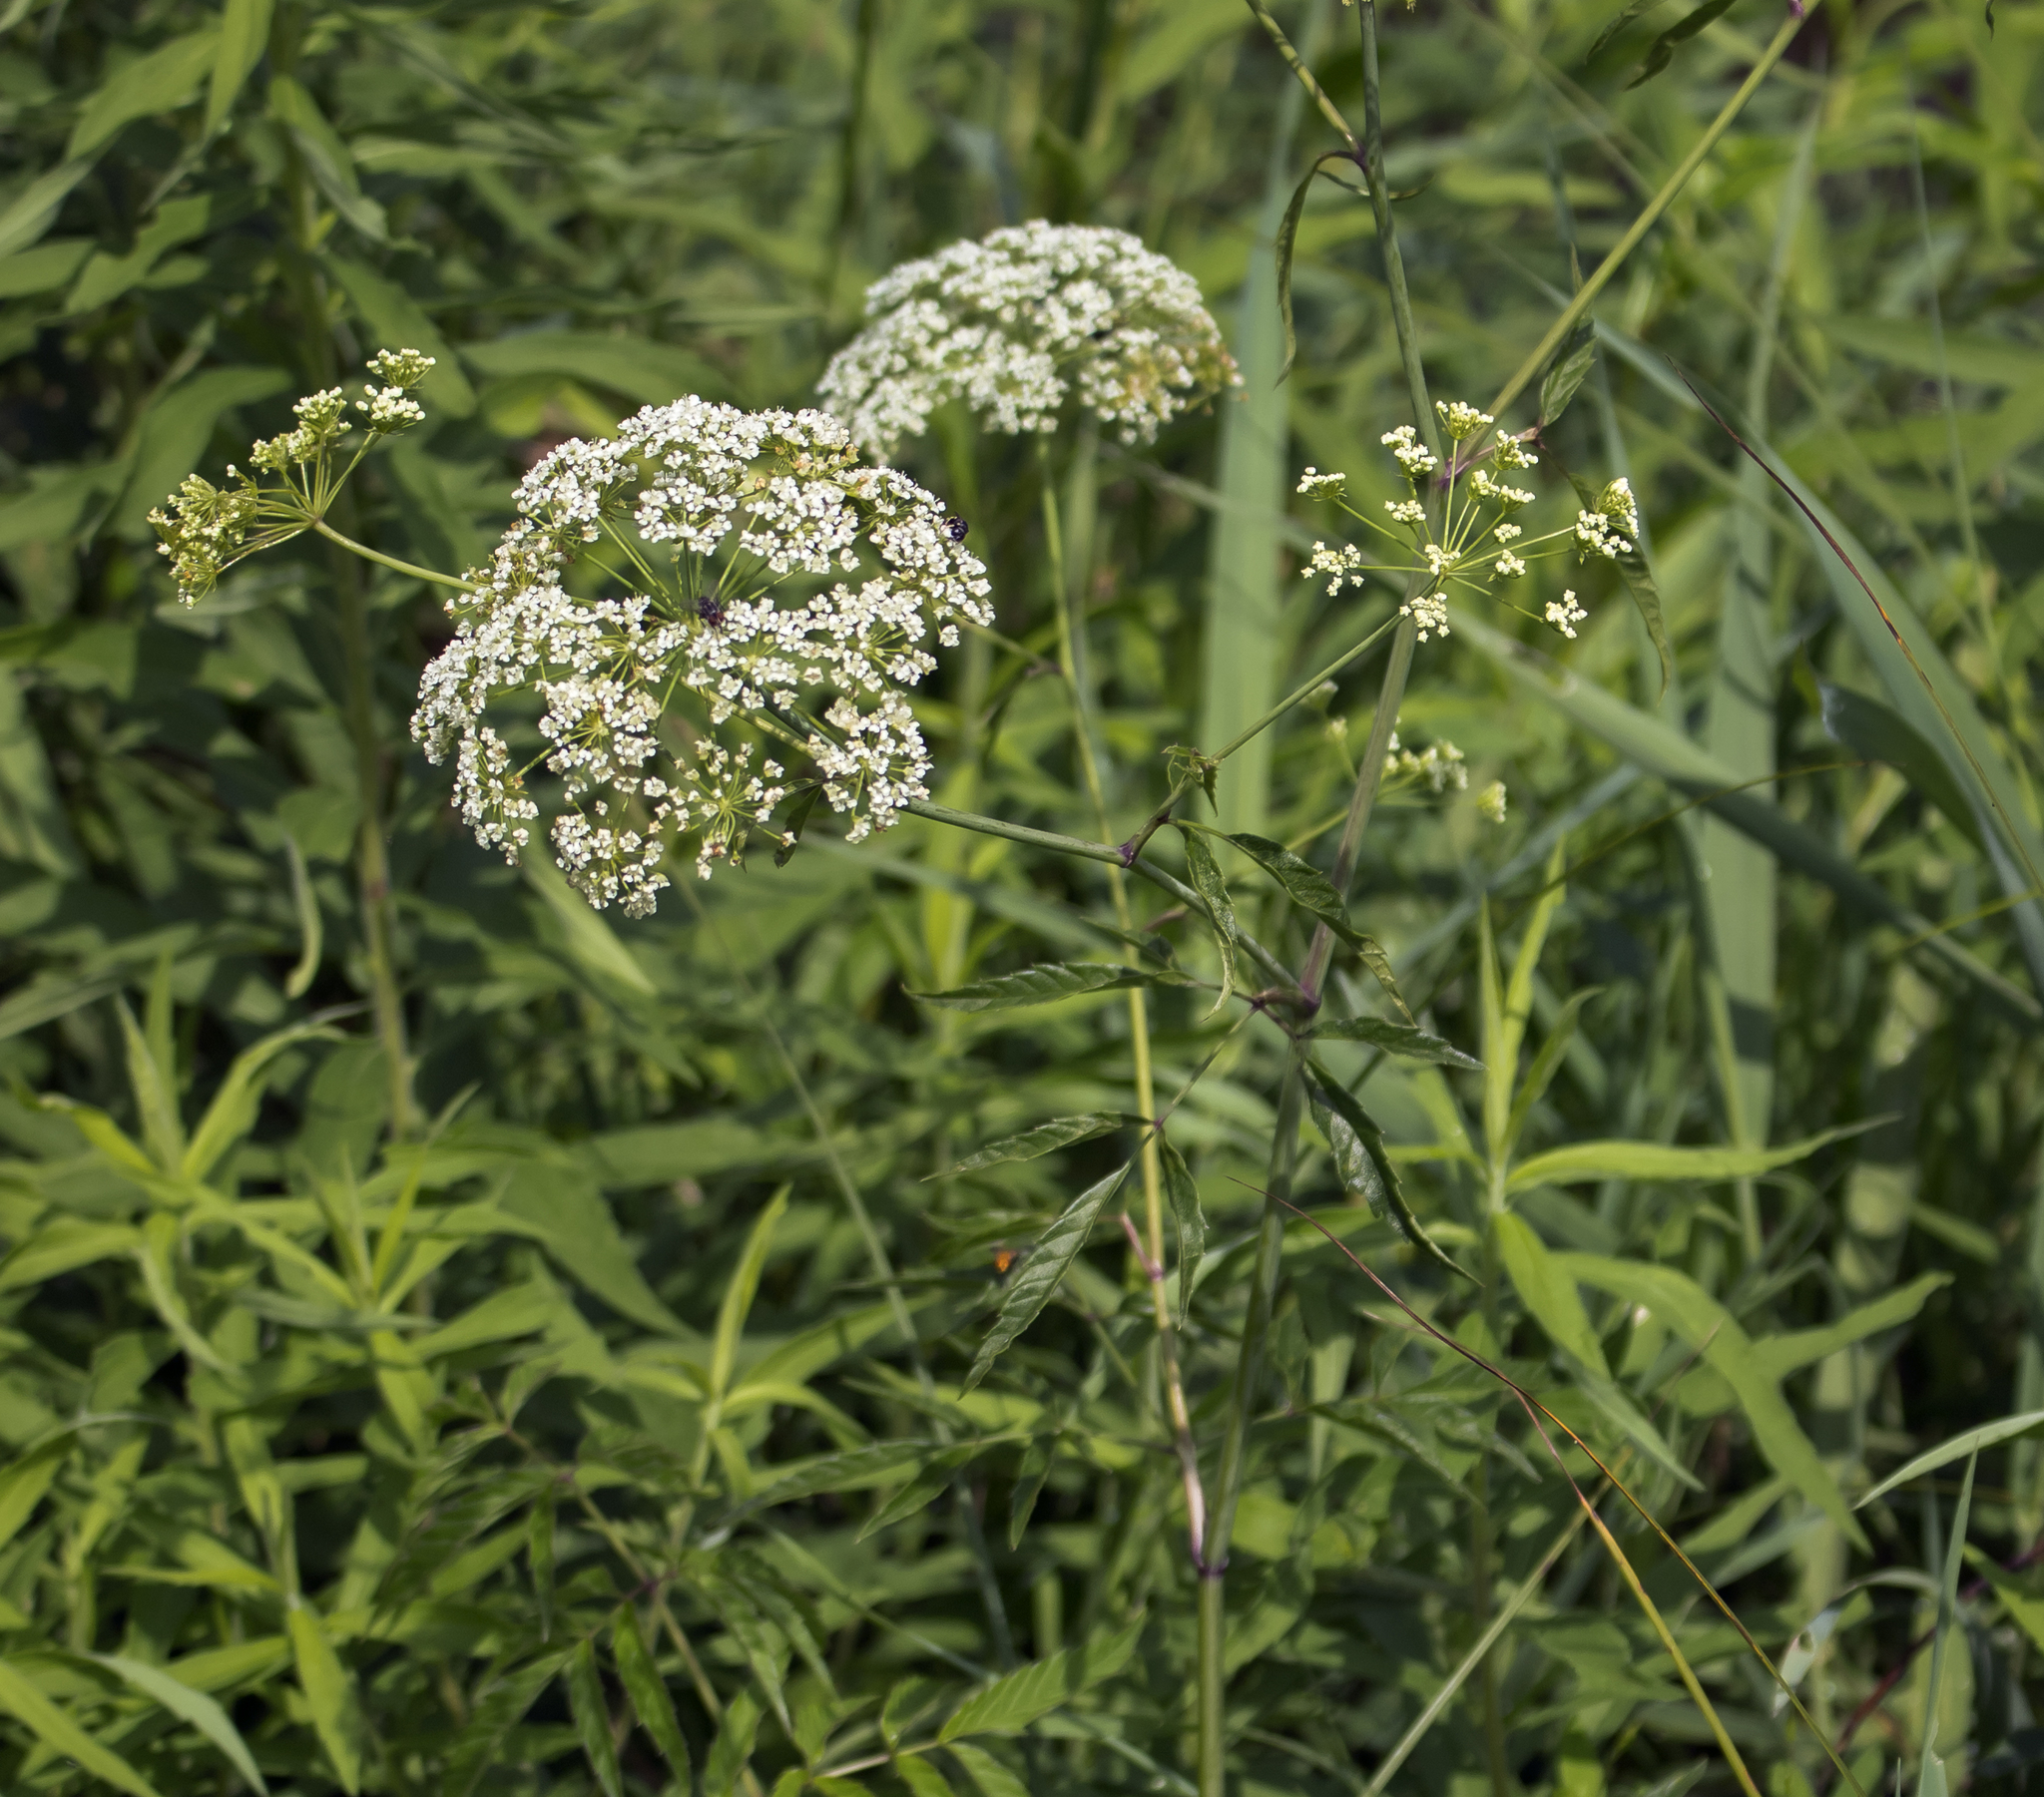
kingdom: Plantae
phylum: Tracheophyta
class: Magnoliopsida
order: Apiales
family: Apiaceae
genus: Cicuta
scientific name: Cicuta maculata
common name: Spotted cowbane
